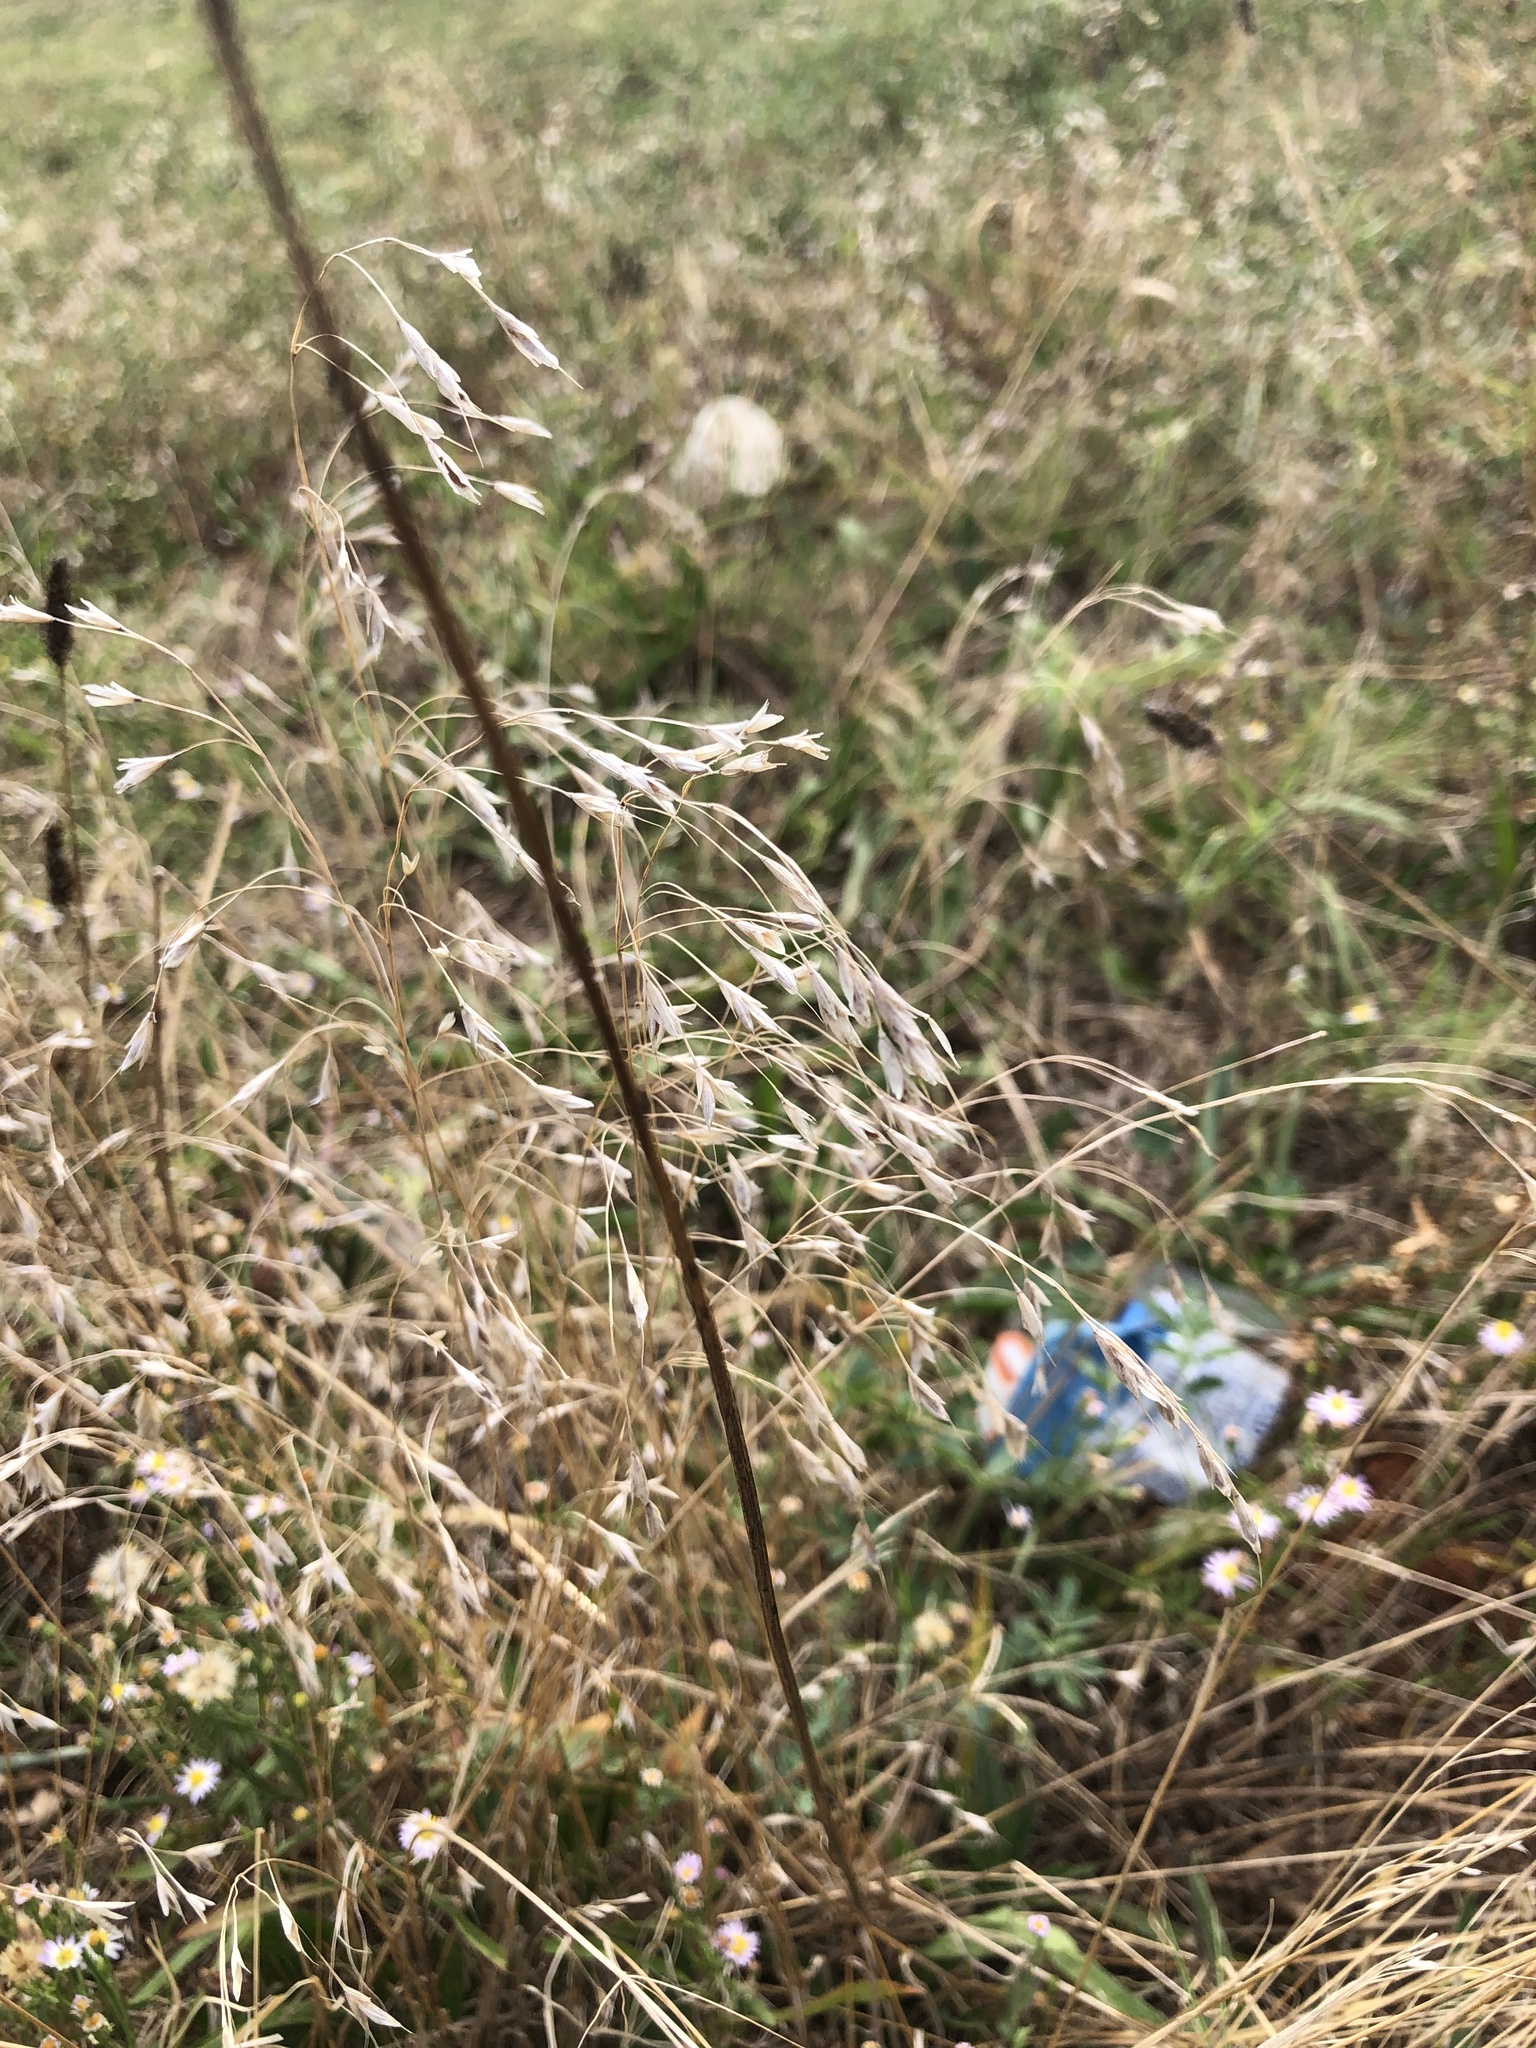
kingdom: Plantae
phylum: Tracheophyta
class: Liliopsida
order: Poales
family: Poaceae
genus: Bromus
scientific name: Bromus japonicus
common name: Japanese brome
